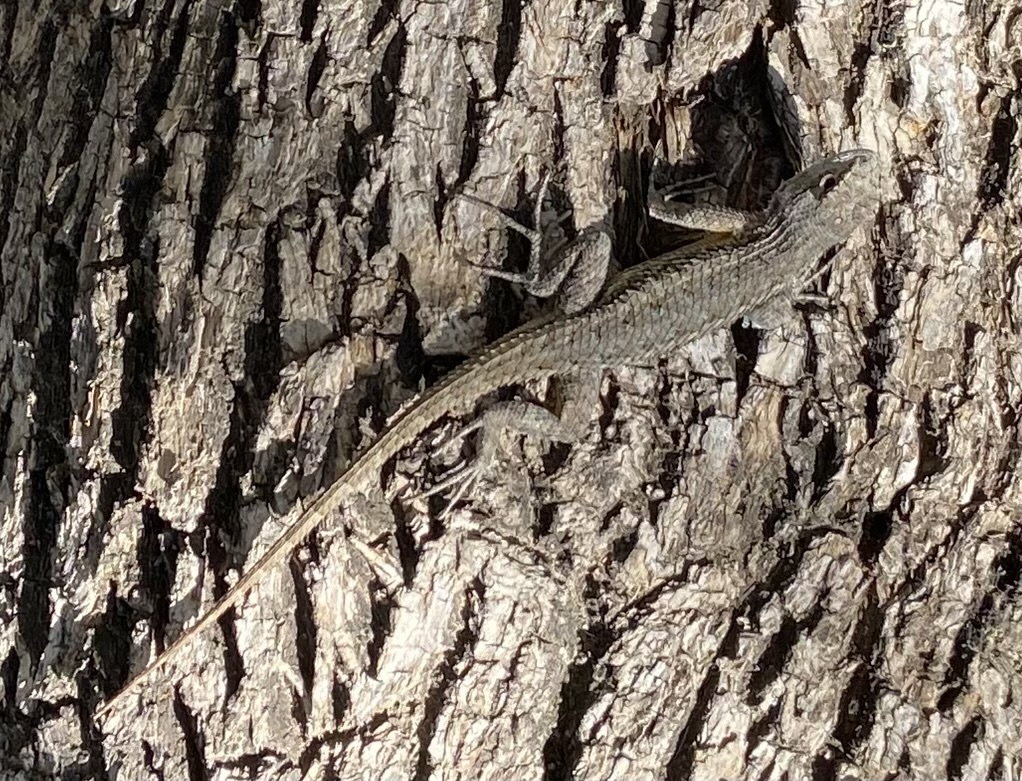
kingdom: Animalia
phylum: Chordata
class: Squamata
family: Phrynosomatidae
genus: Sceloporus
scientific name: Sceloporus occidentalis
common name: Western fence lizard
